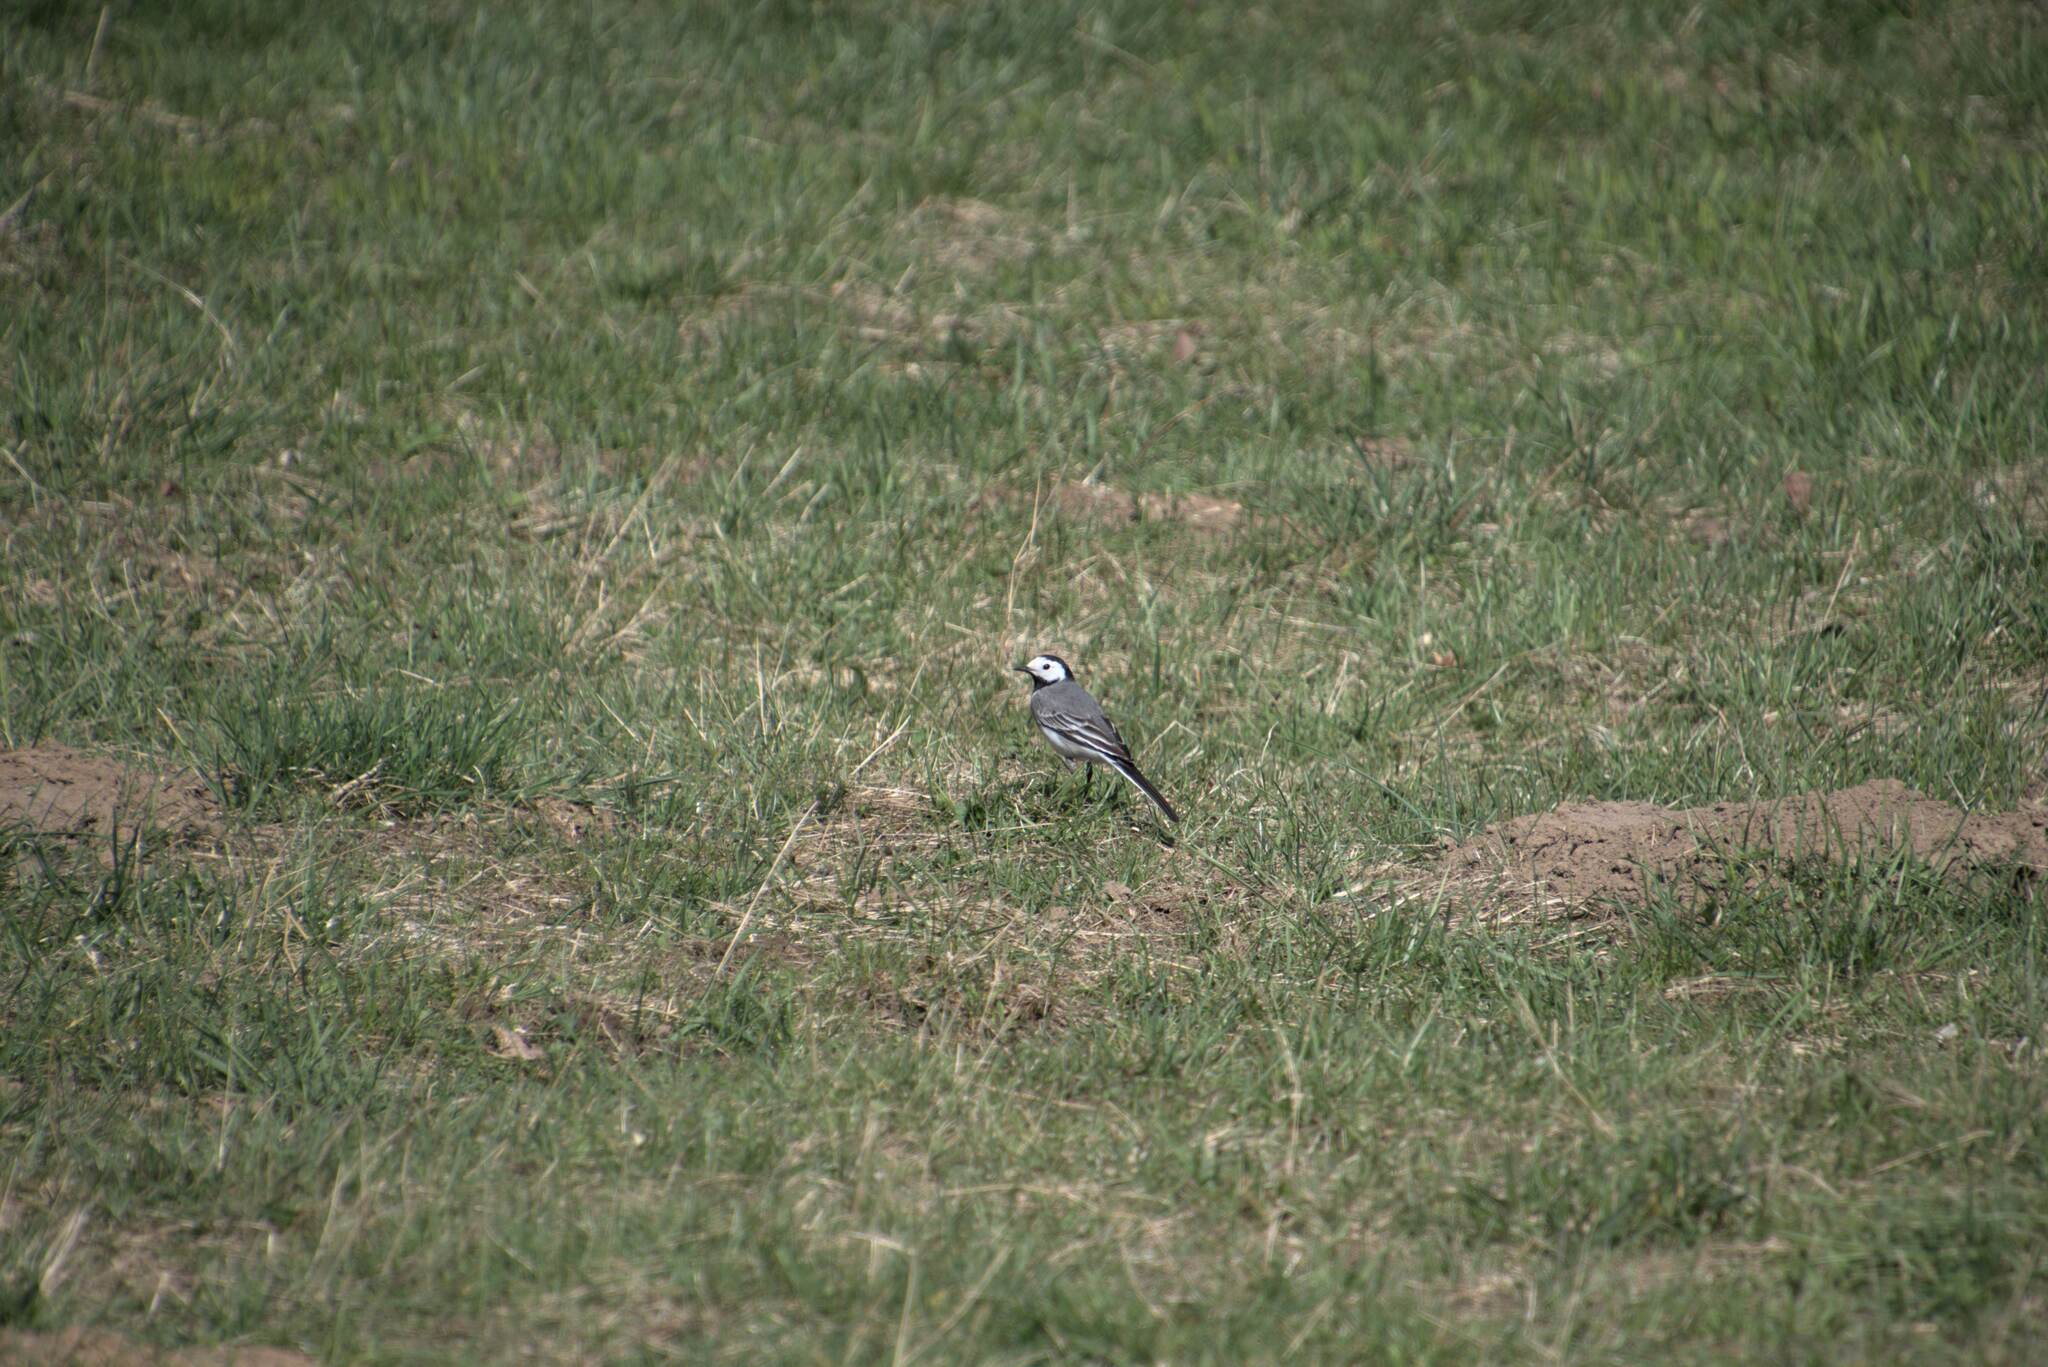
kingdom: Animalia
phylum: Chordata
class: Aves
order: Passeriformes
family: Motacillidae
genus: Motacilla
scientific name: Motacilla alba
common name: White wagtail
